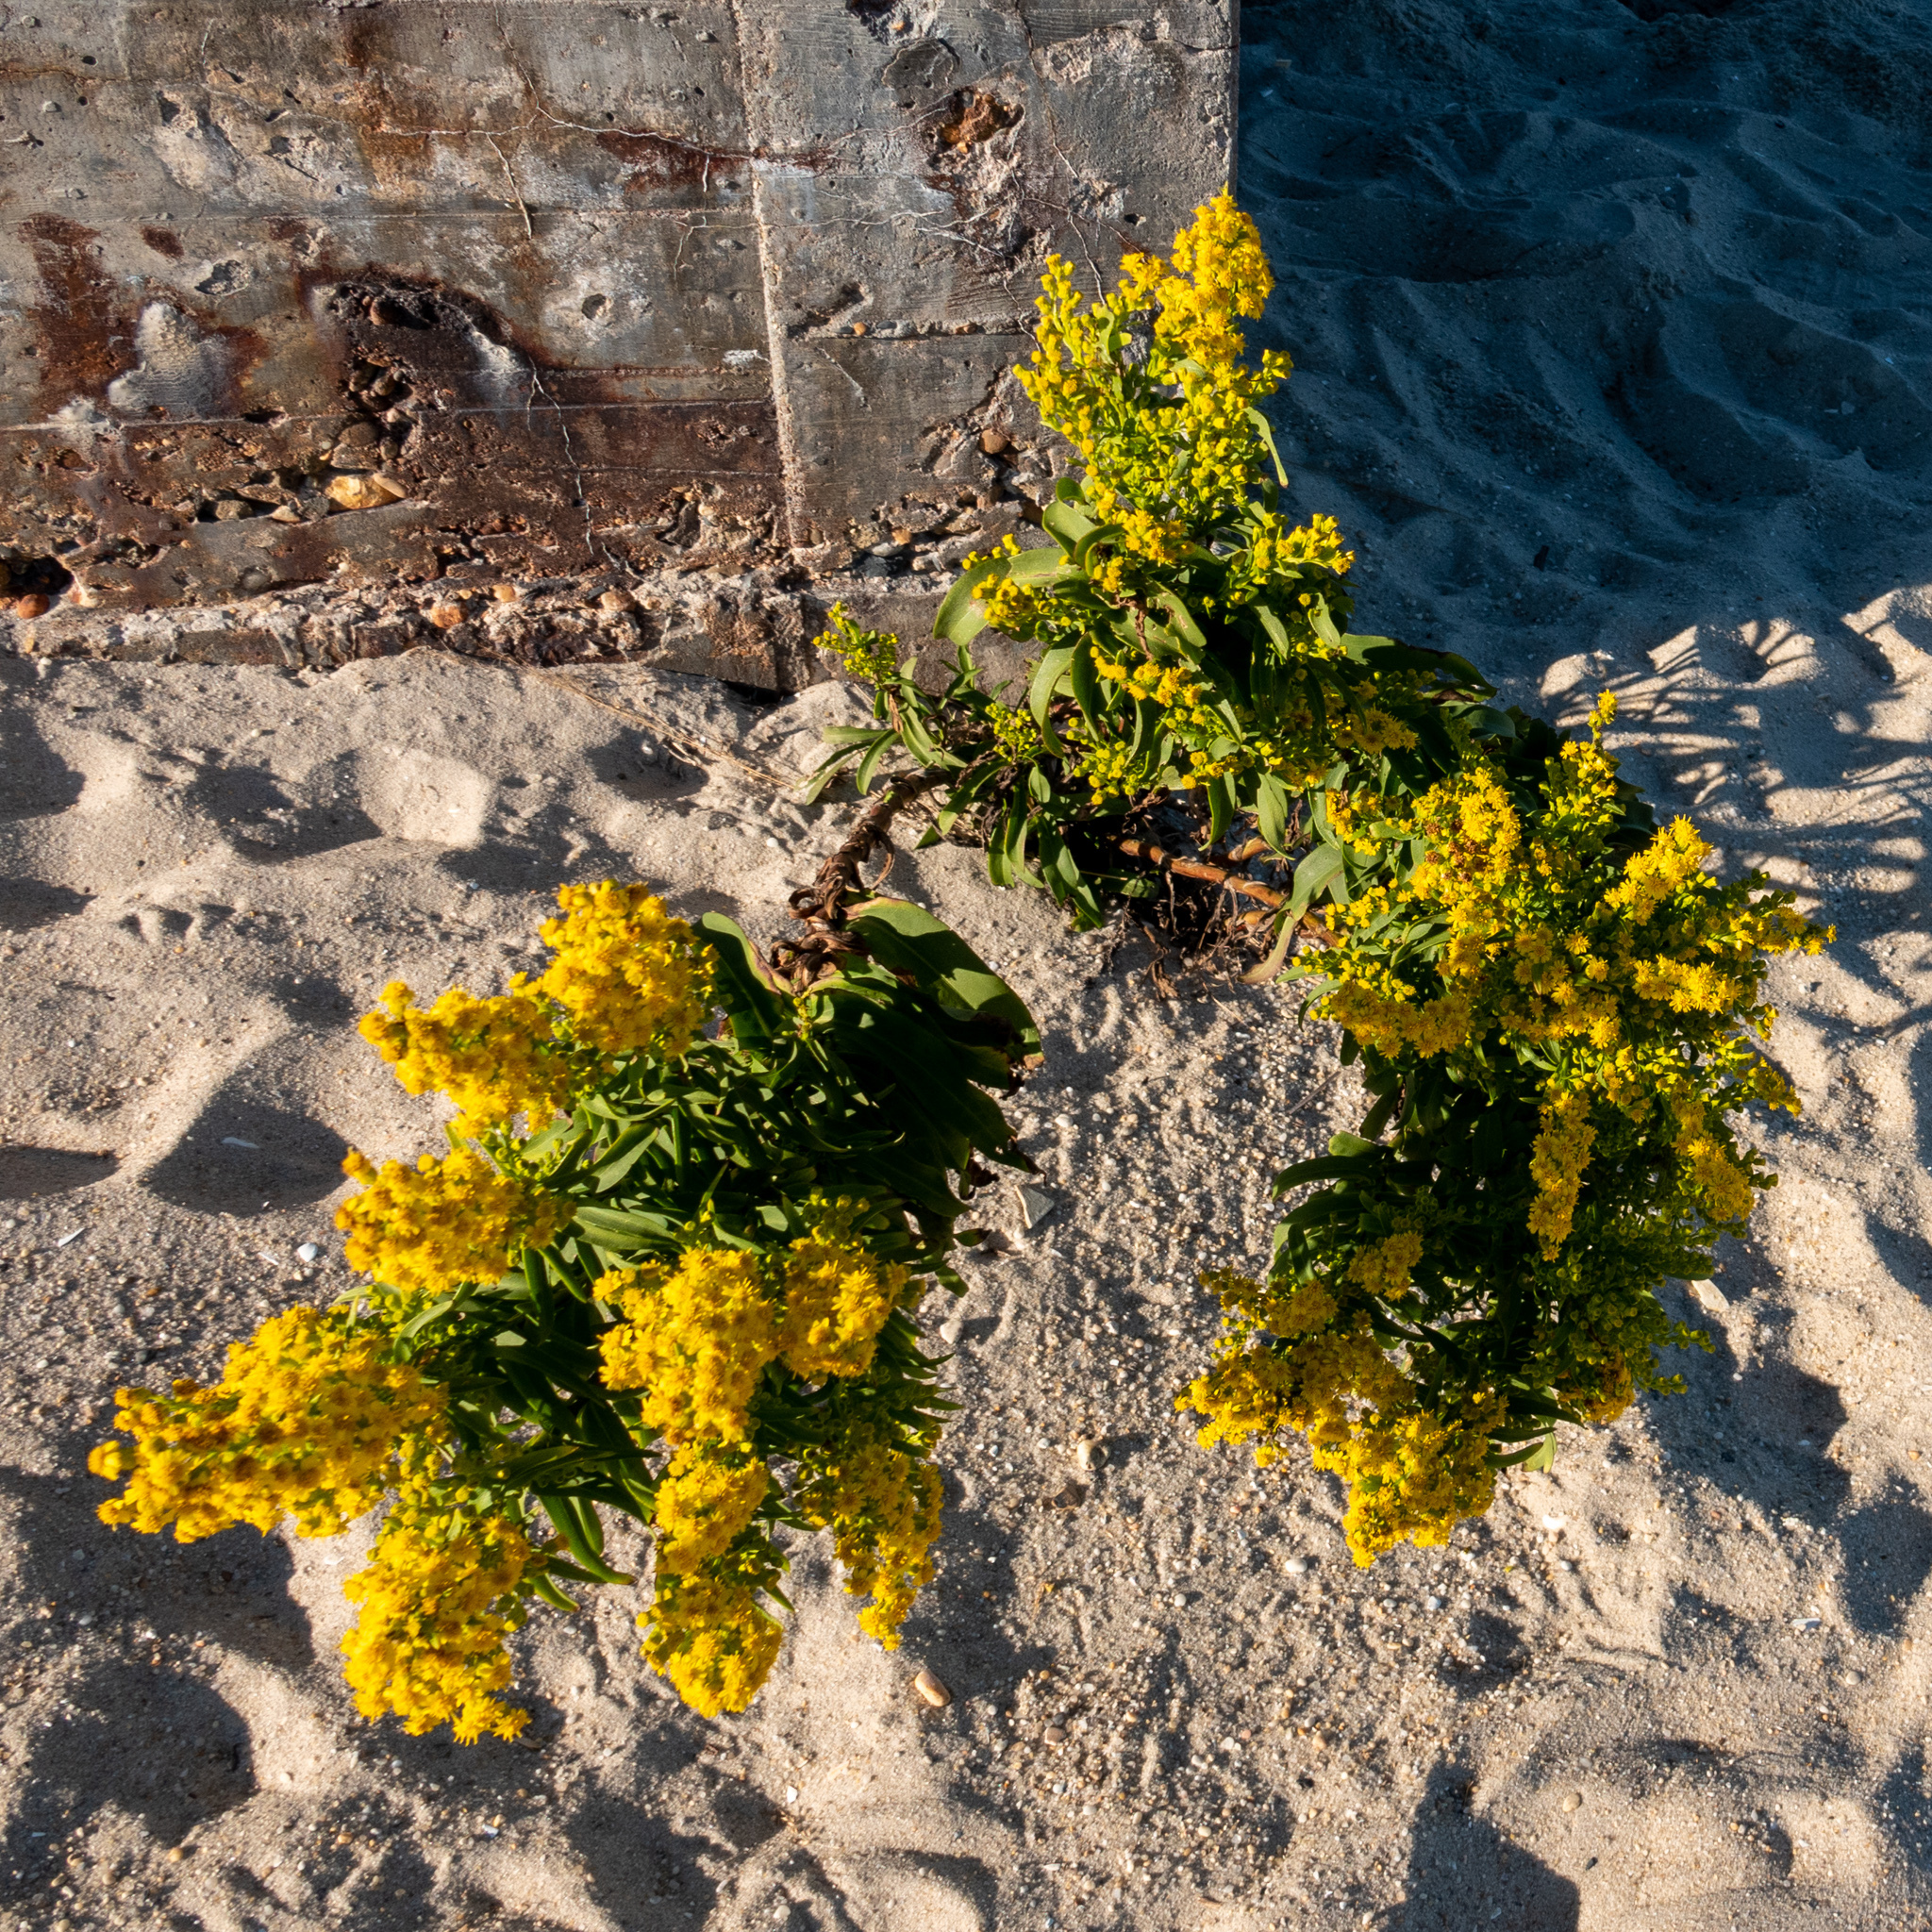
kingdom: Plantae
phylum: Tracheophyta
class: Magnoliopsida
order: Asterales
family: Asteraceae
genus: Solidago
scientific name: Solidago sempervirens
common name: Salt-marsh goldenrod
